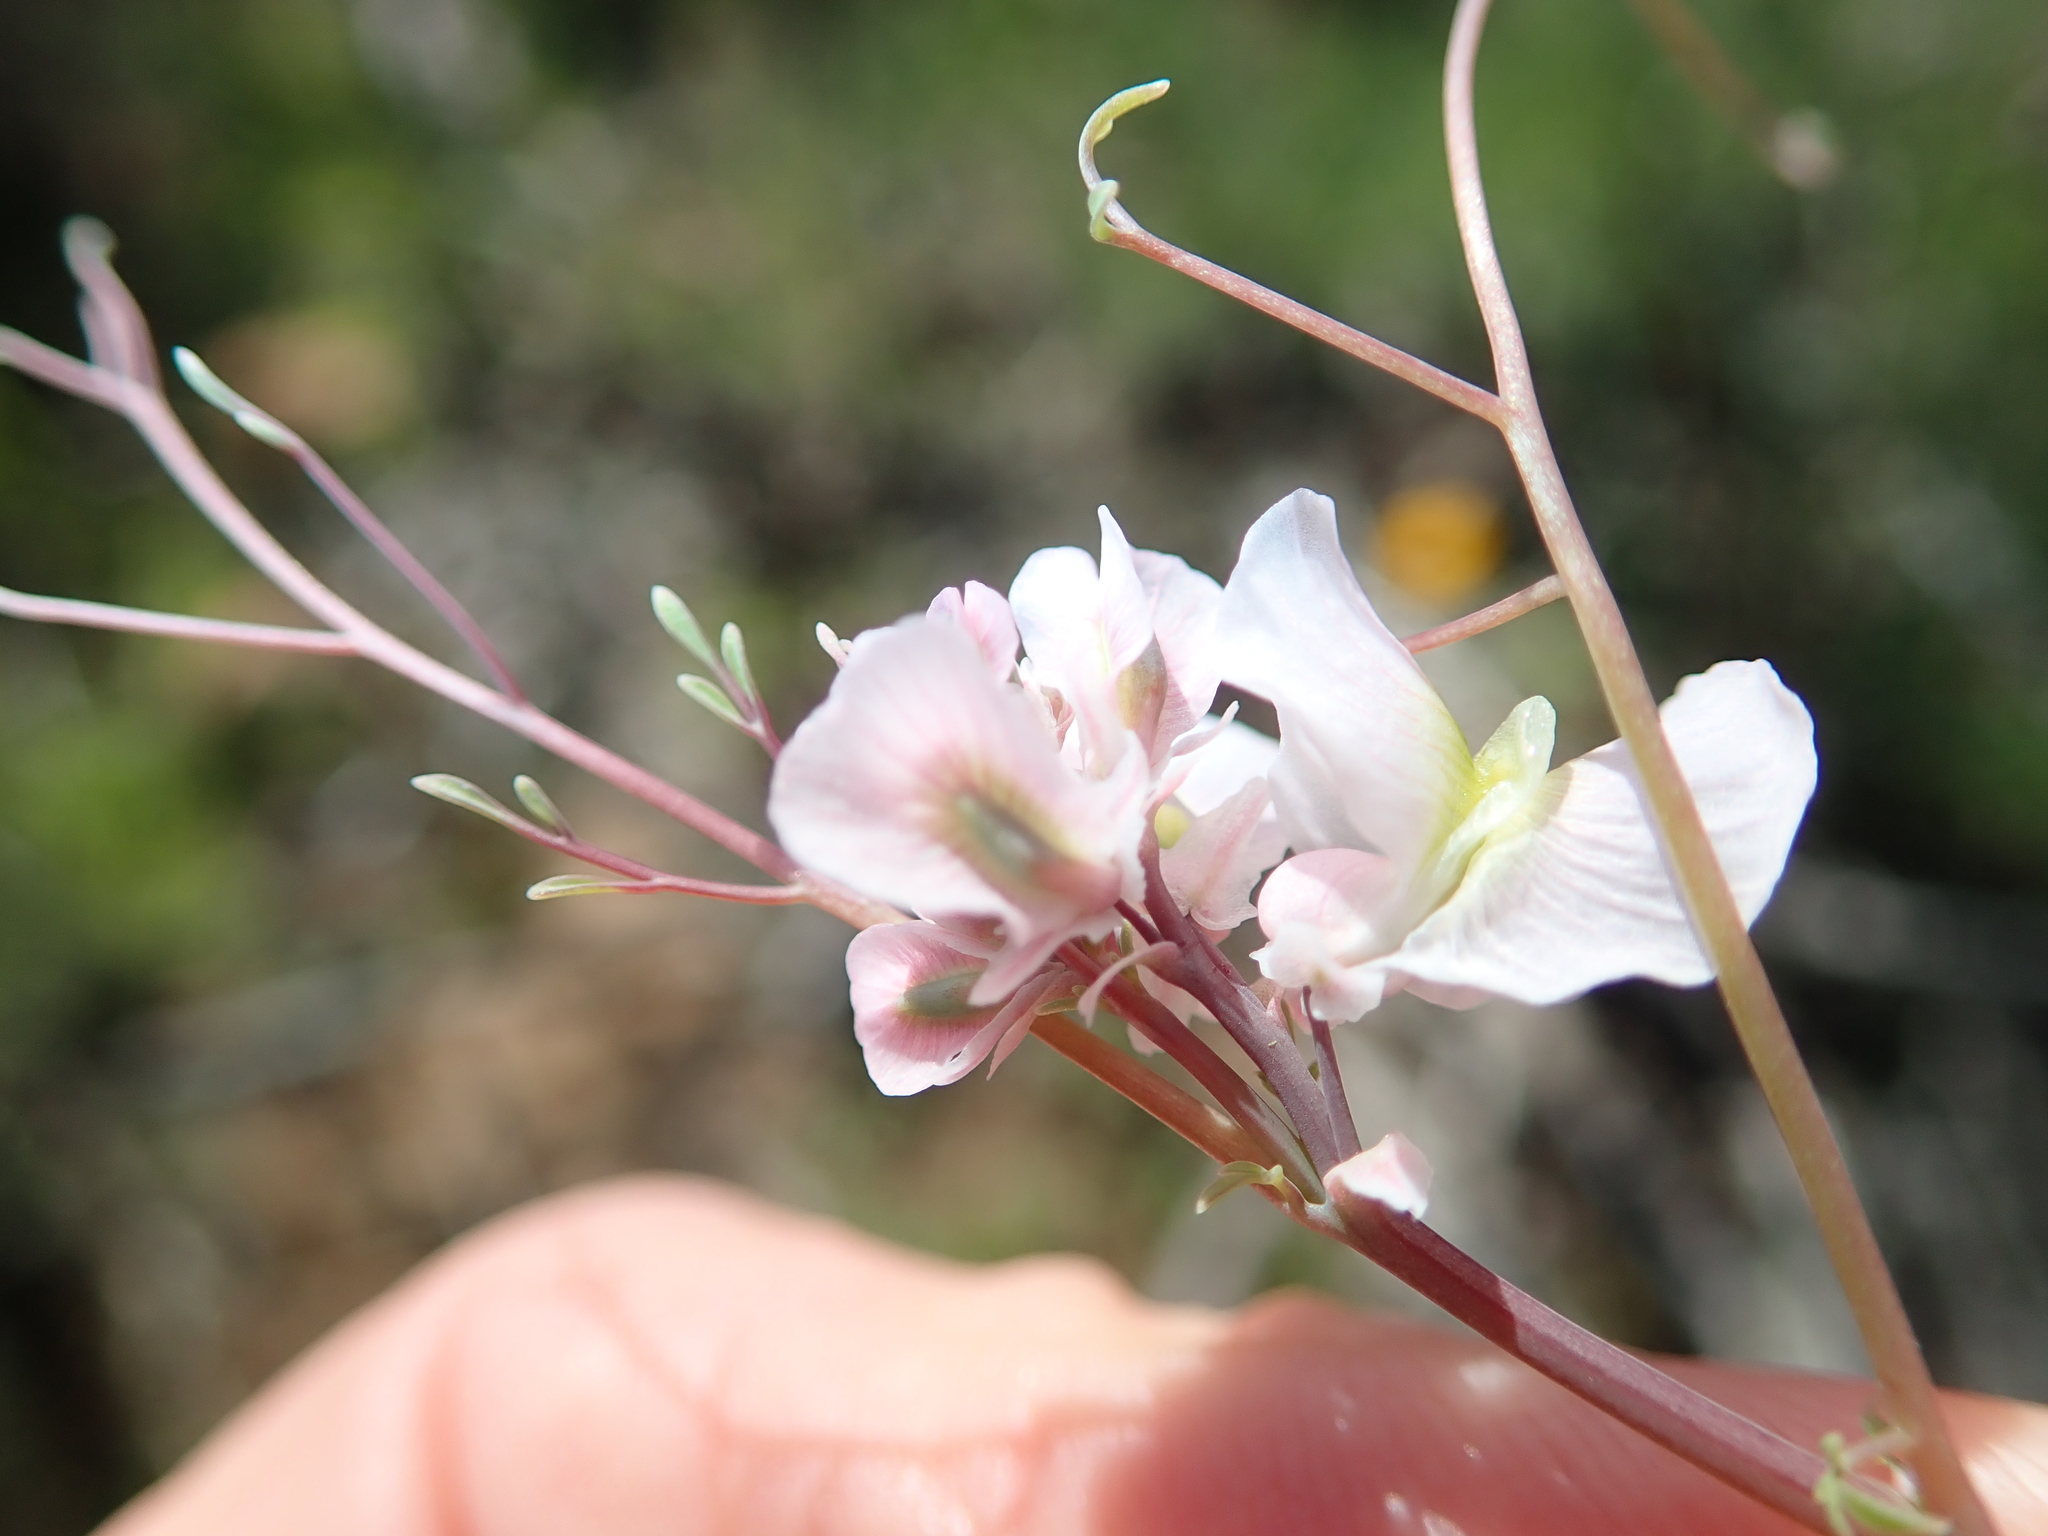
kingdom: Plantae
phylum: Tracheophyta
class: Magnoliopsida
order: Ranunculales
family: Papaveraceae
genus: Cysticapnos
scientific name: Cysticapnos vesicaria
